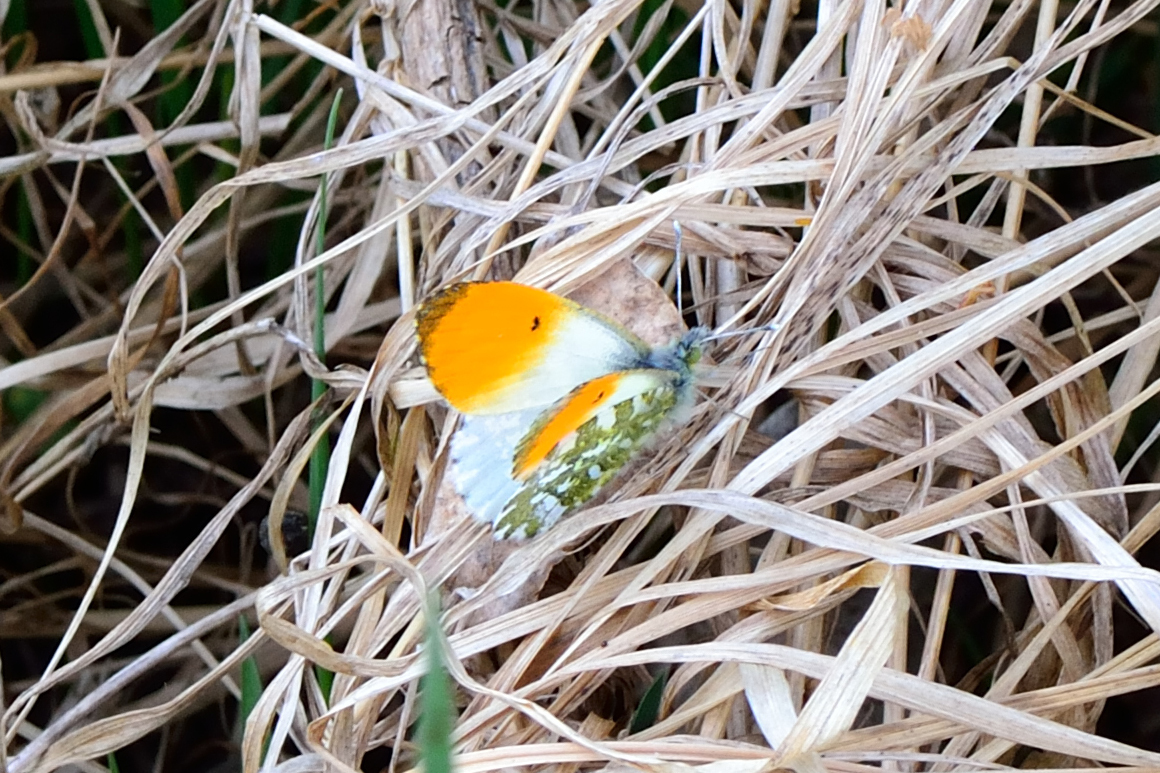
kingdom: Animalia
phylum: Arthropoda
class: Insecta
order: Lepidoptera
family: Pieridae
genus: Anthocharis
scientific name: Anthocharis cardamines
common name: Orange-tip
